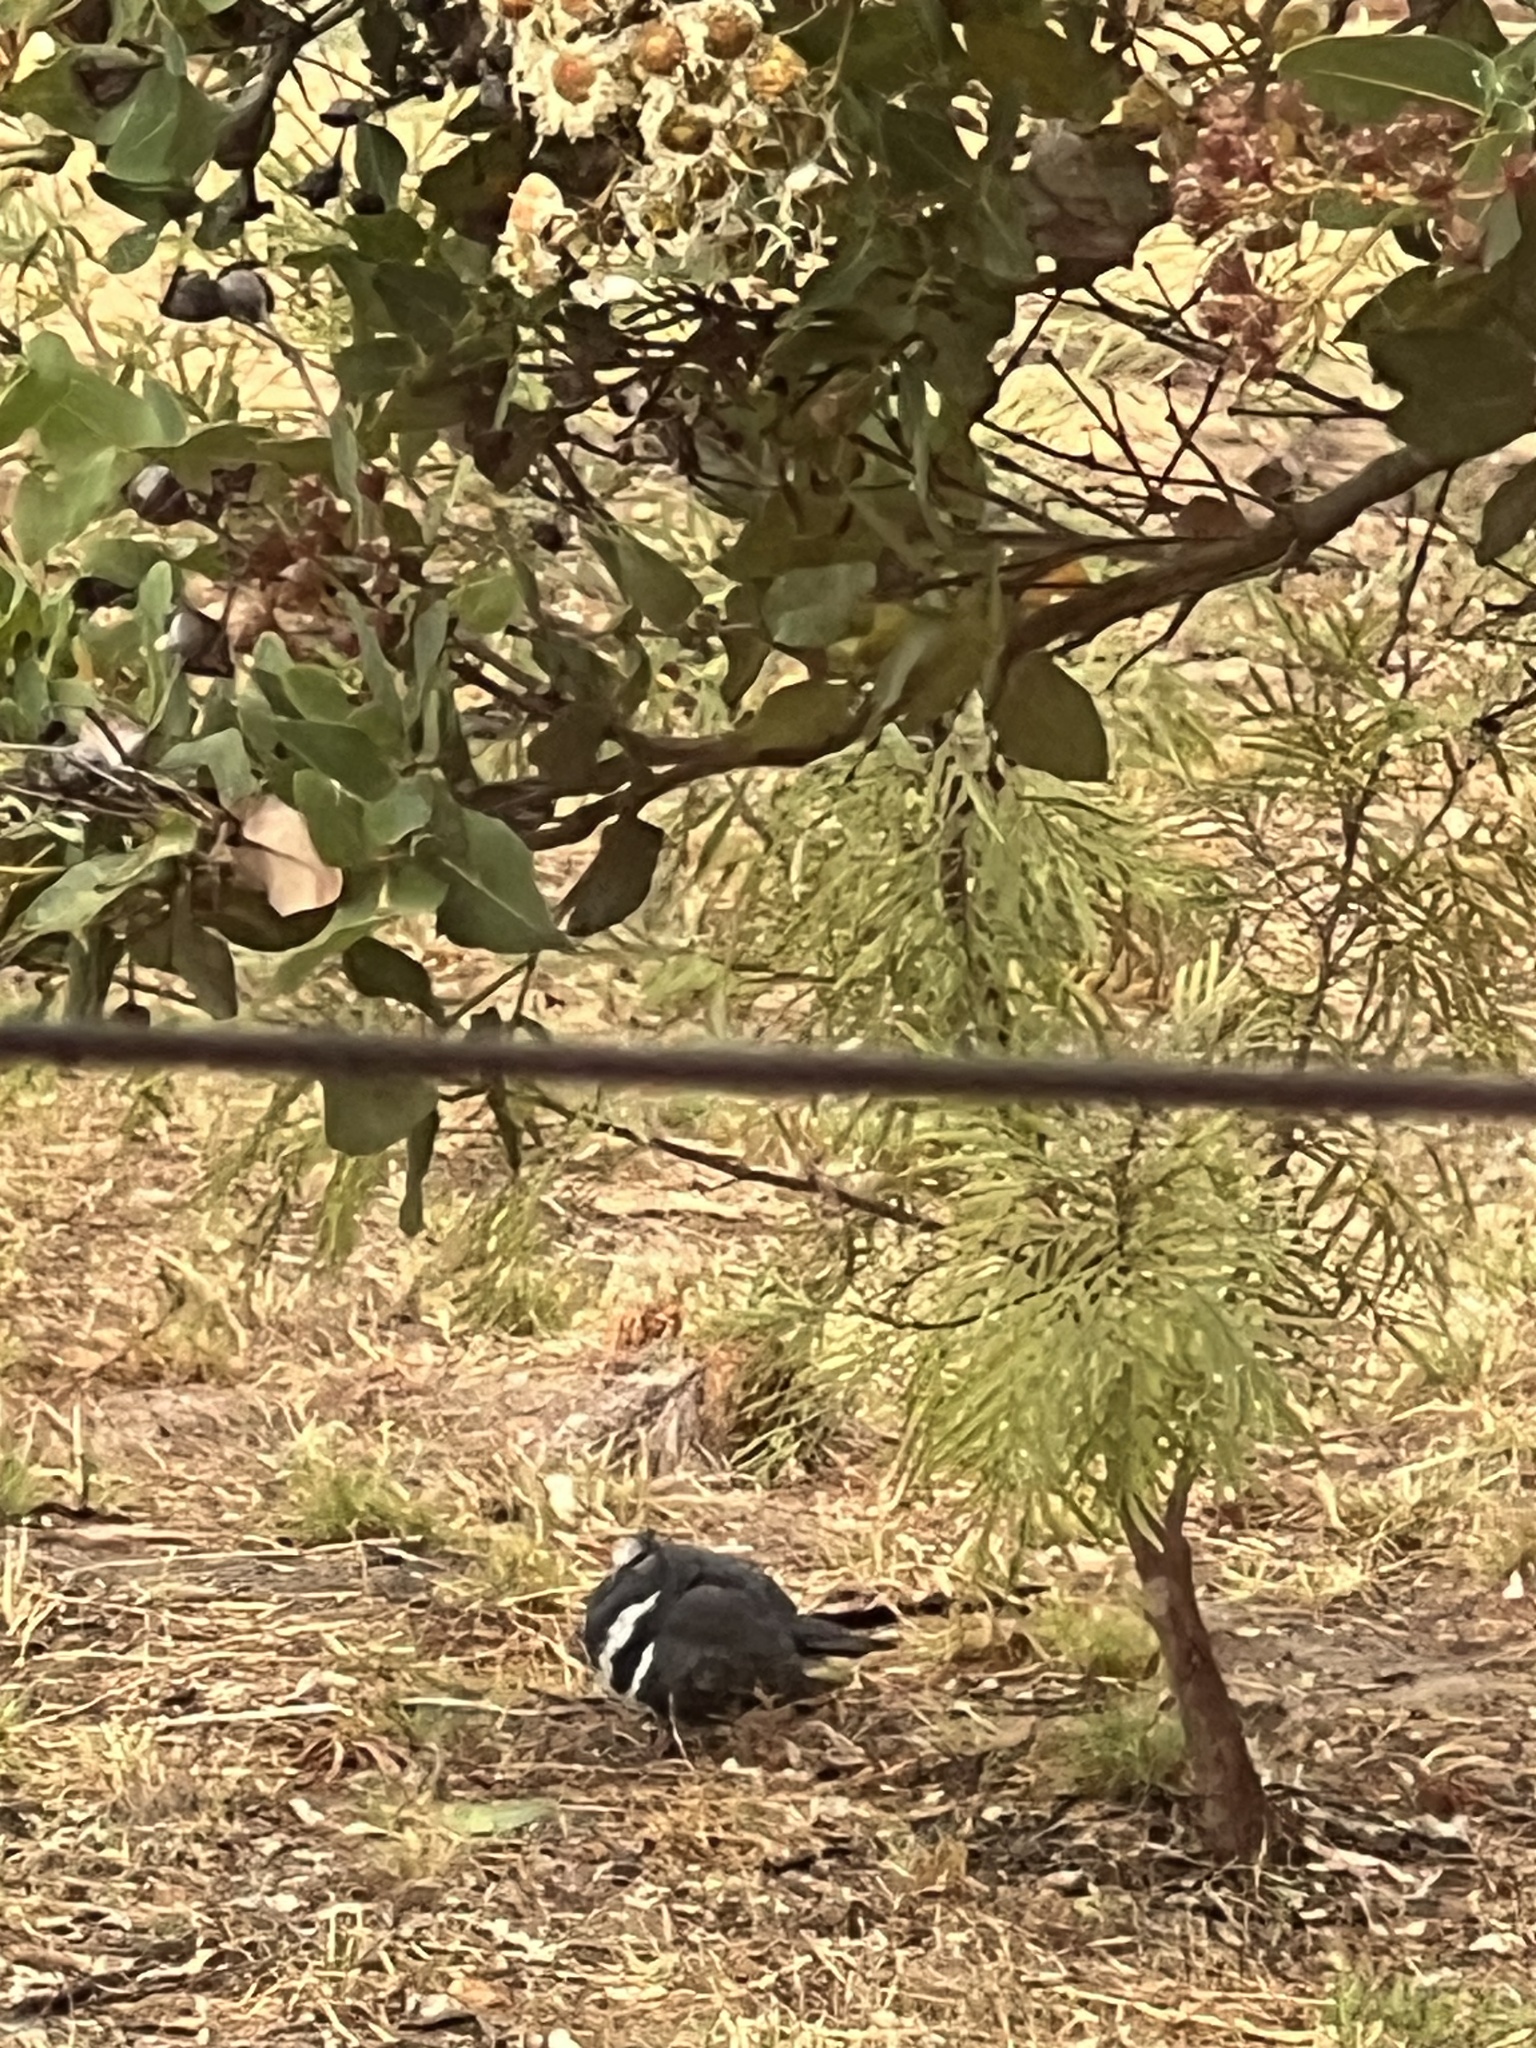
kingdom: Animalia
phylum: Chordata
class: Aves
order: Columbiformes
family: Columbidae
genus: Leucosarcia
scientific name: Leucosarcia melanoleuca
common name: Wonga pigeon
